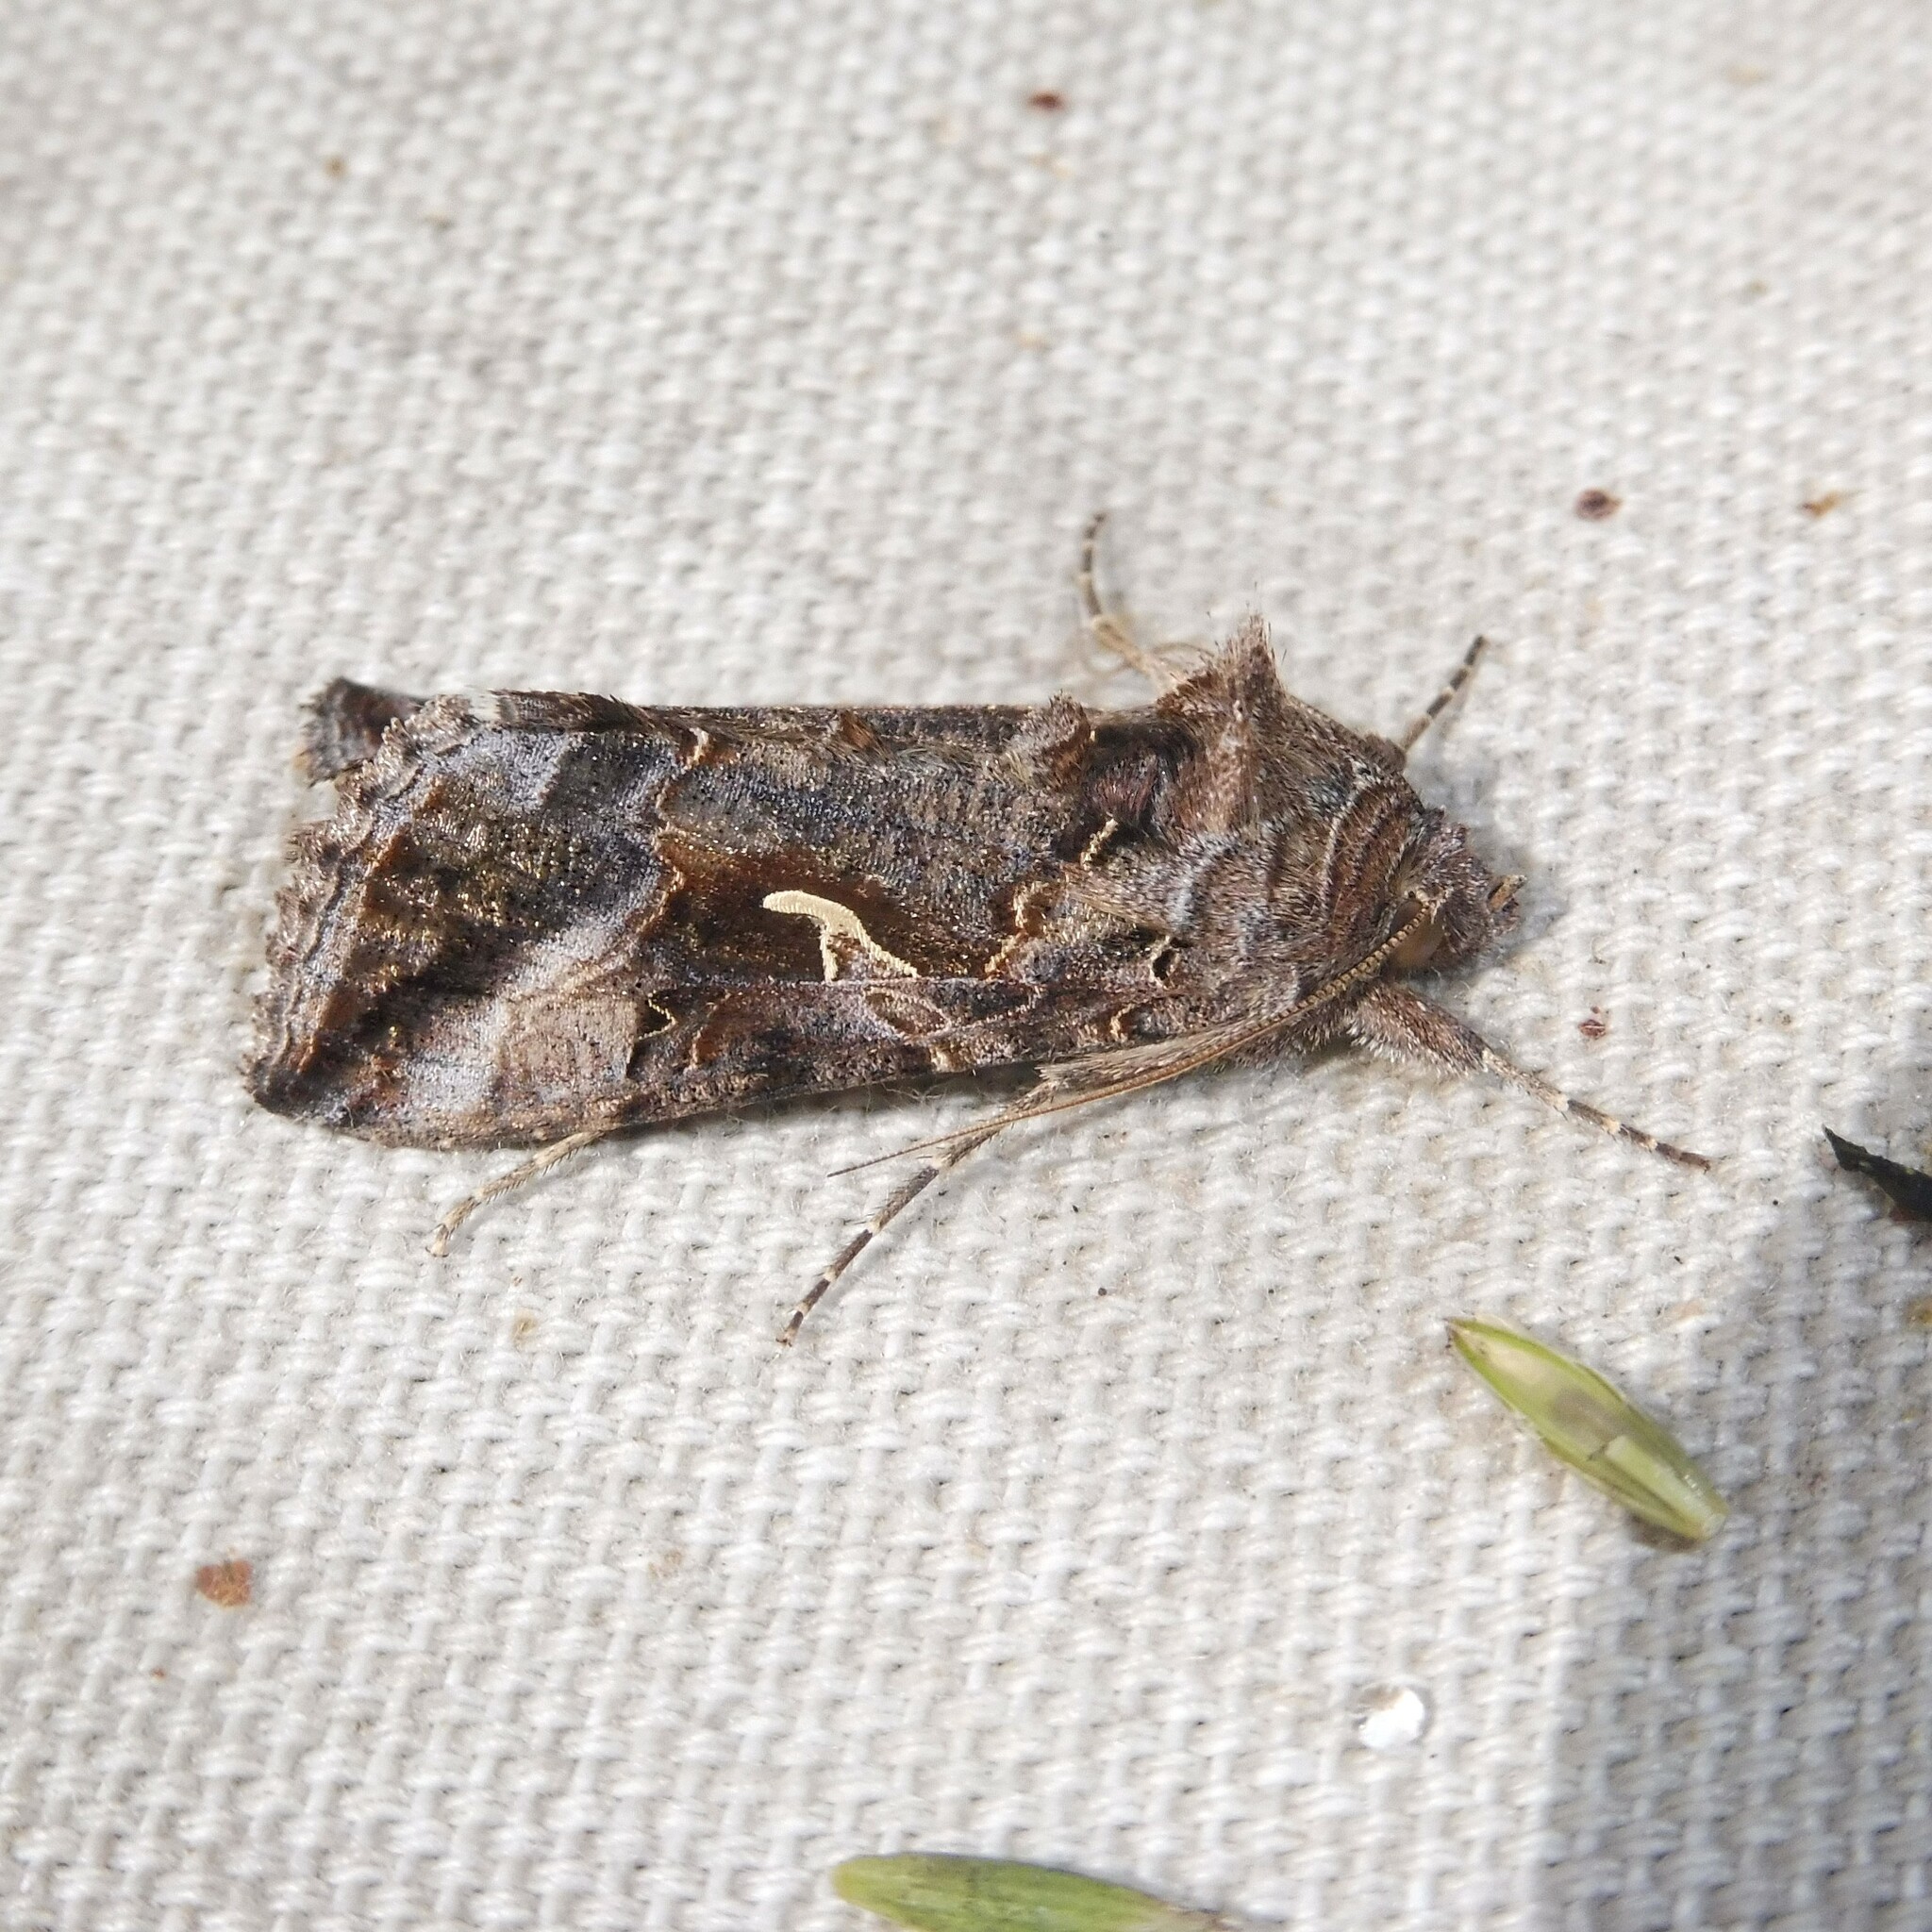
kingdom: Animalia
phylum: Arthropoda
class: Insecta
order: Lepidoptera
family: Noctuidae
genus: Autographa
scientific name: Autographa gamma
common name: Silver y
